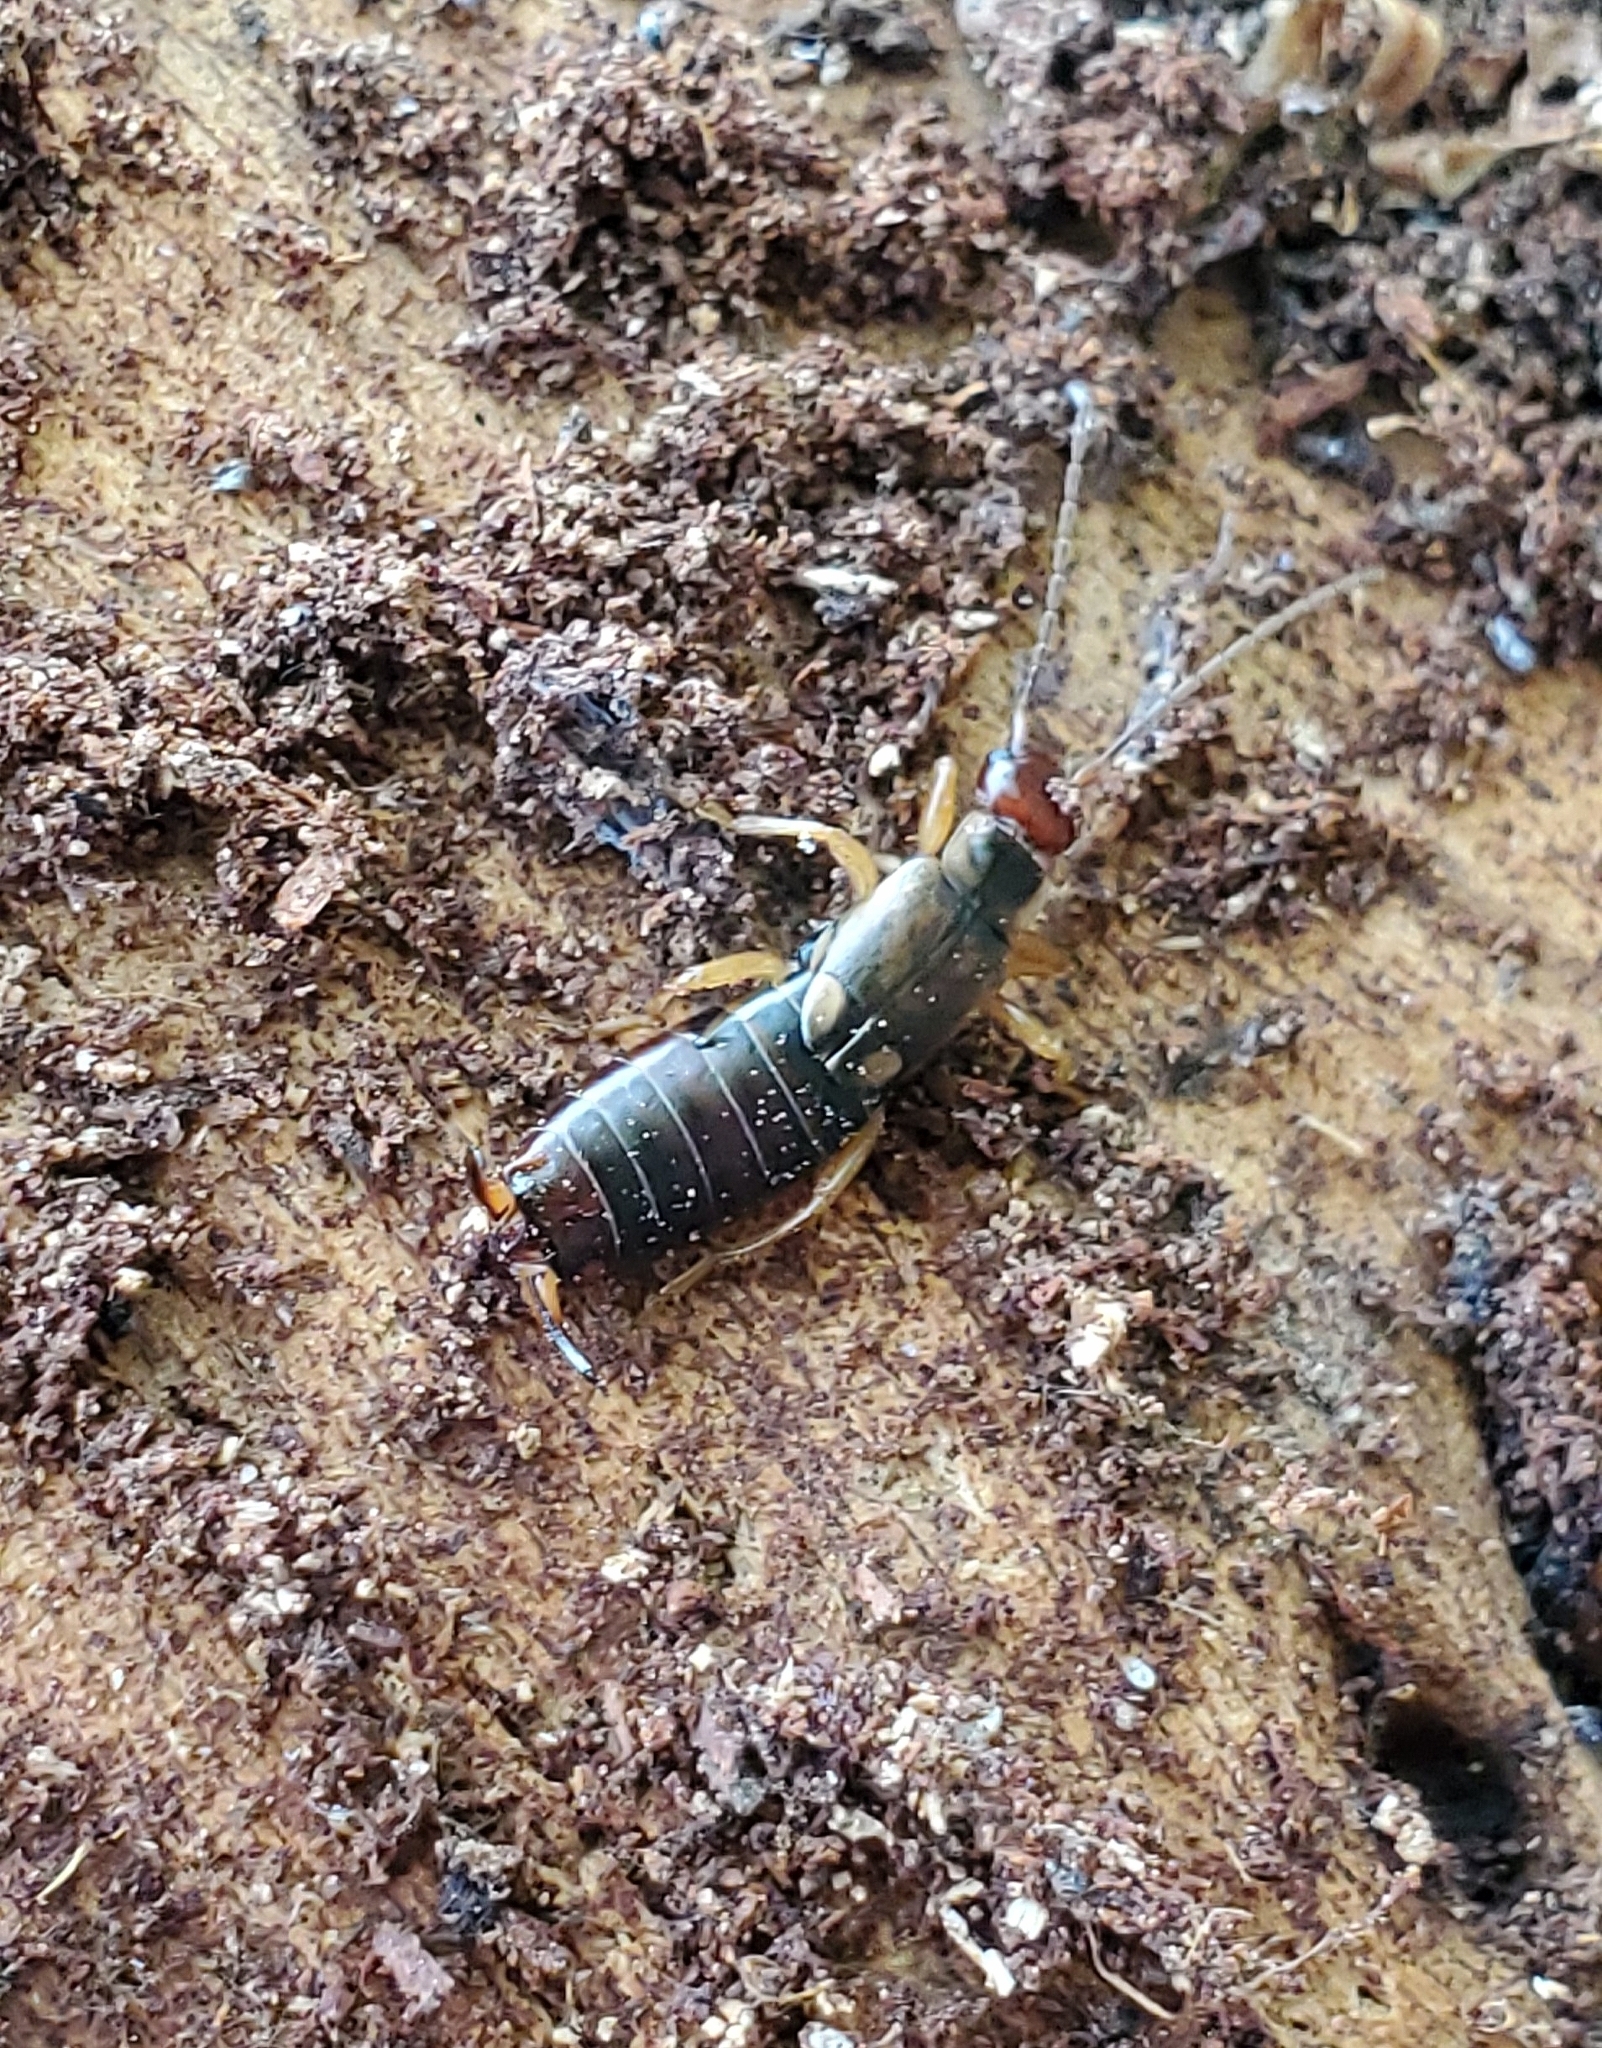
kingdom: Animalia
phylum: Arthropoda
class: Insecta
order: Dermaptera
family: Forficulidae
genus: Forficula
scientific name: Forficula
